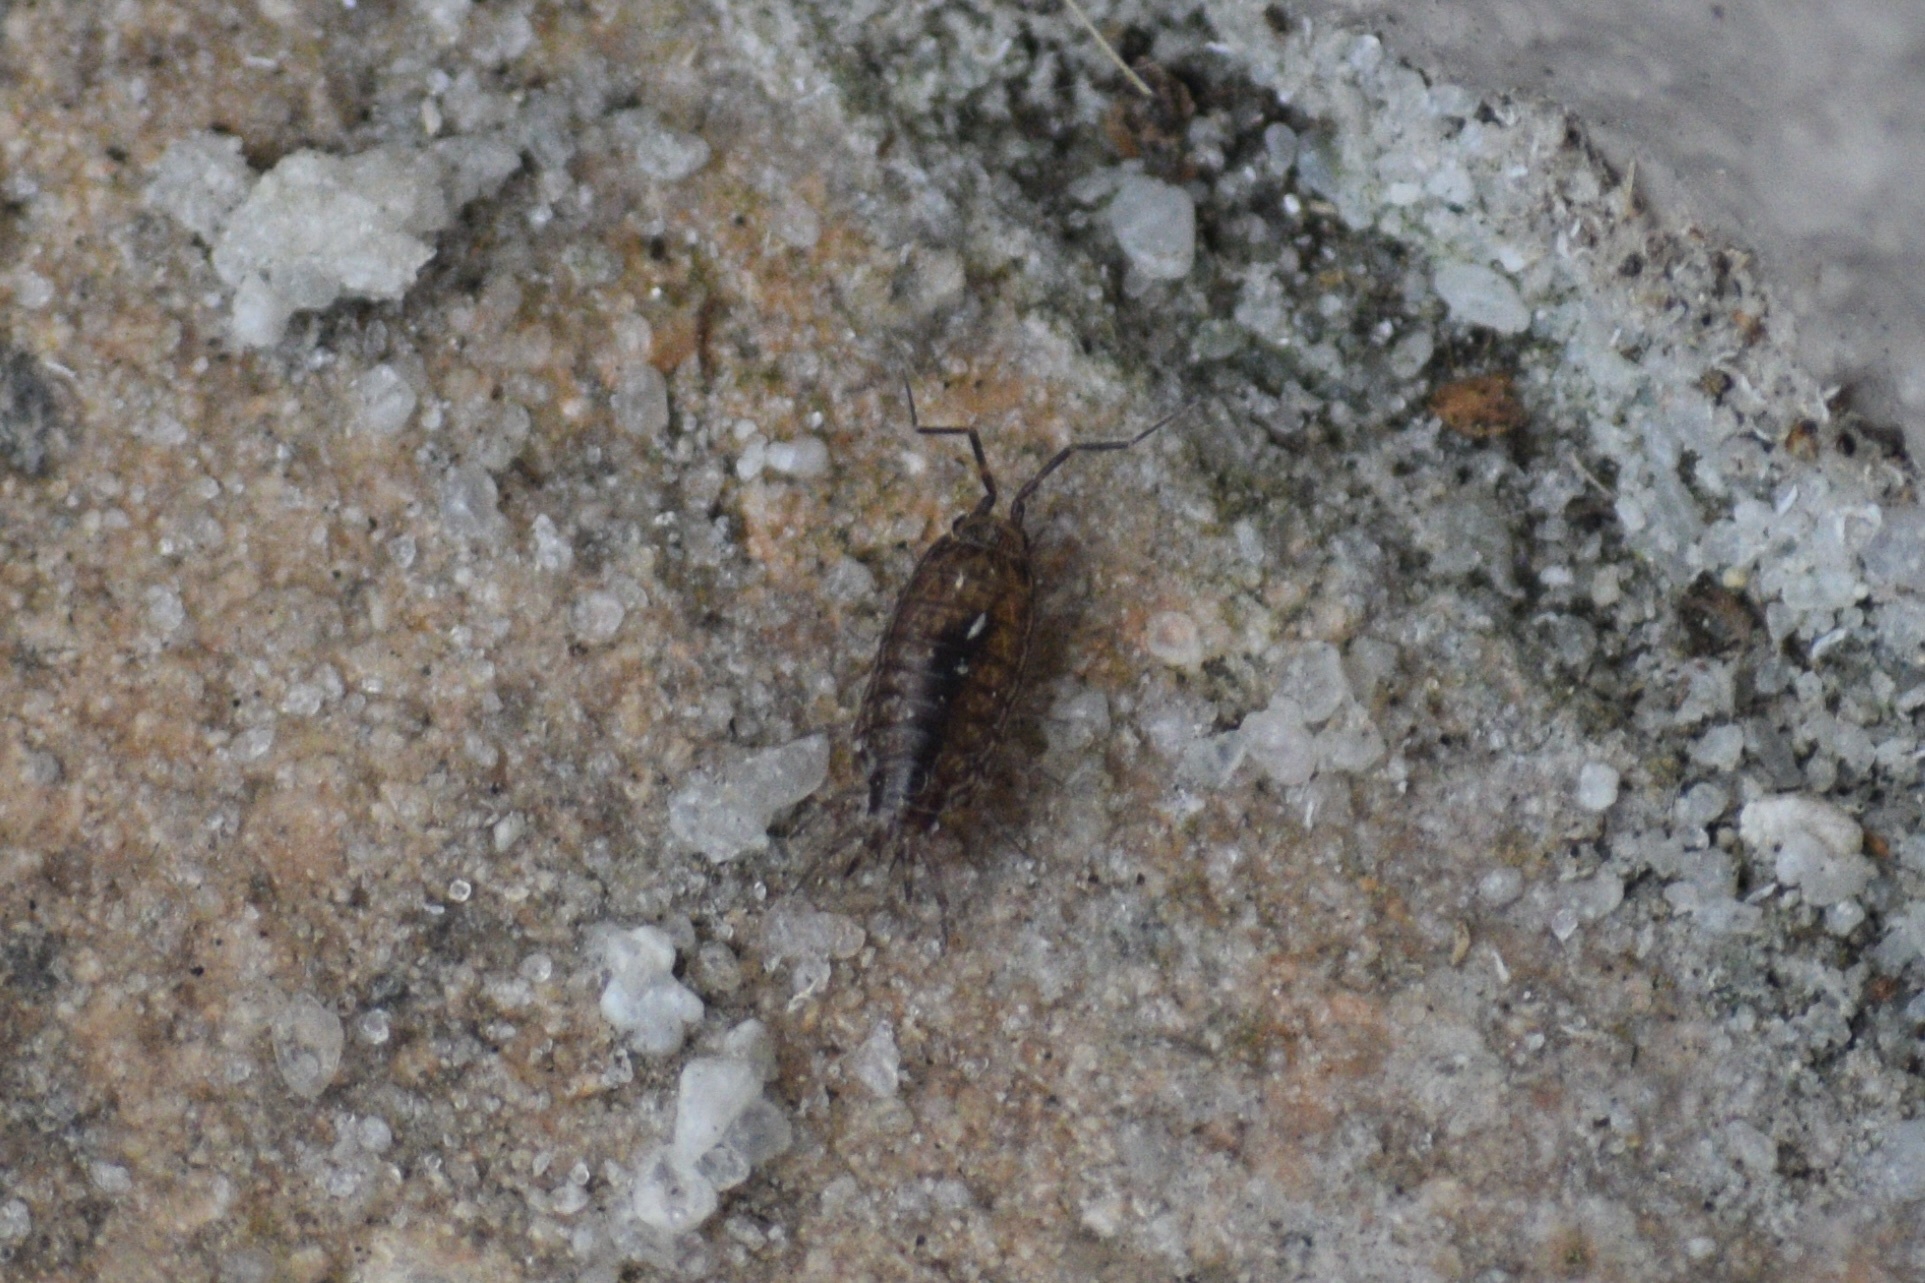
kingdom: Animalia
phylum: Arthropoda
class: Malacostraca
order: Isopoda
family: Philosciidae
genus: Atlantoscia
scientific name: Atlantoscia floridana
